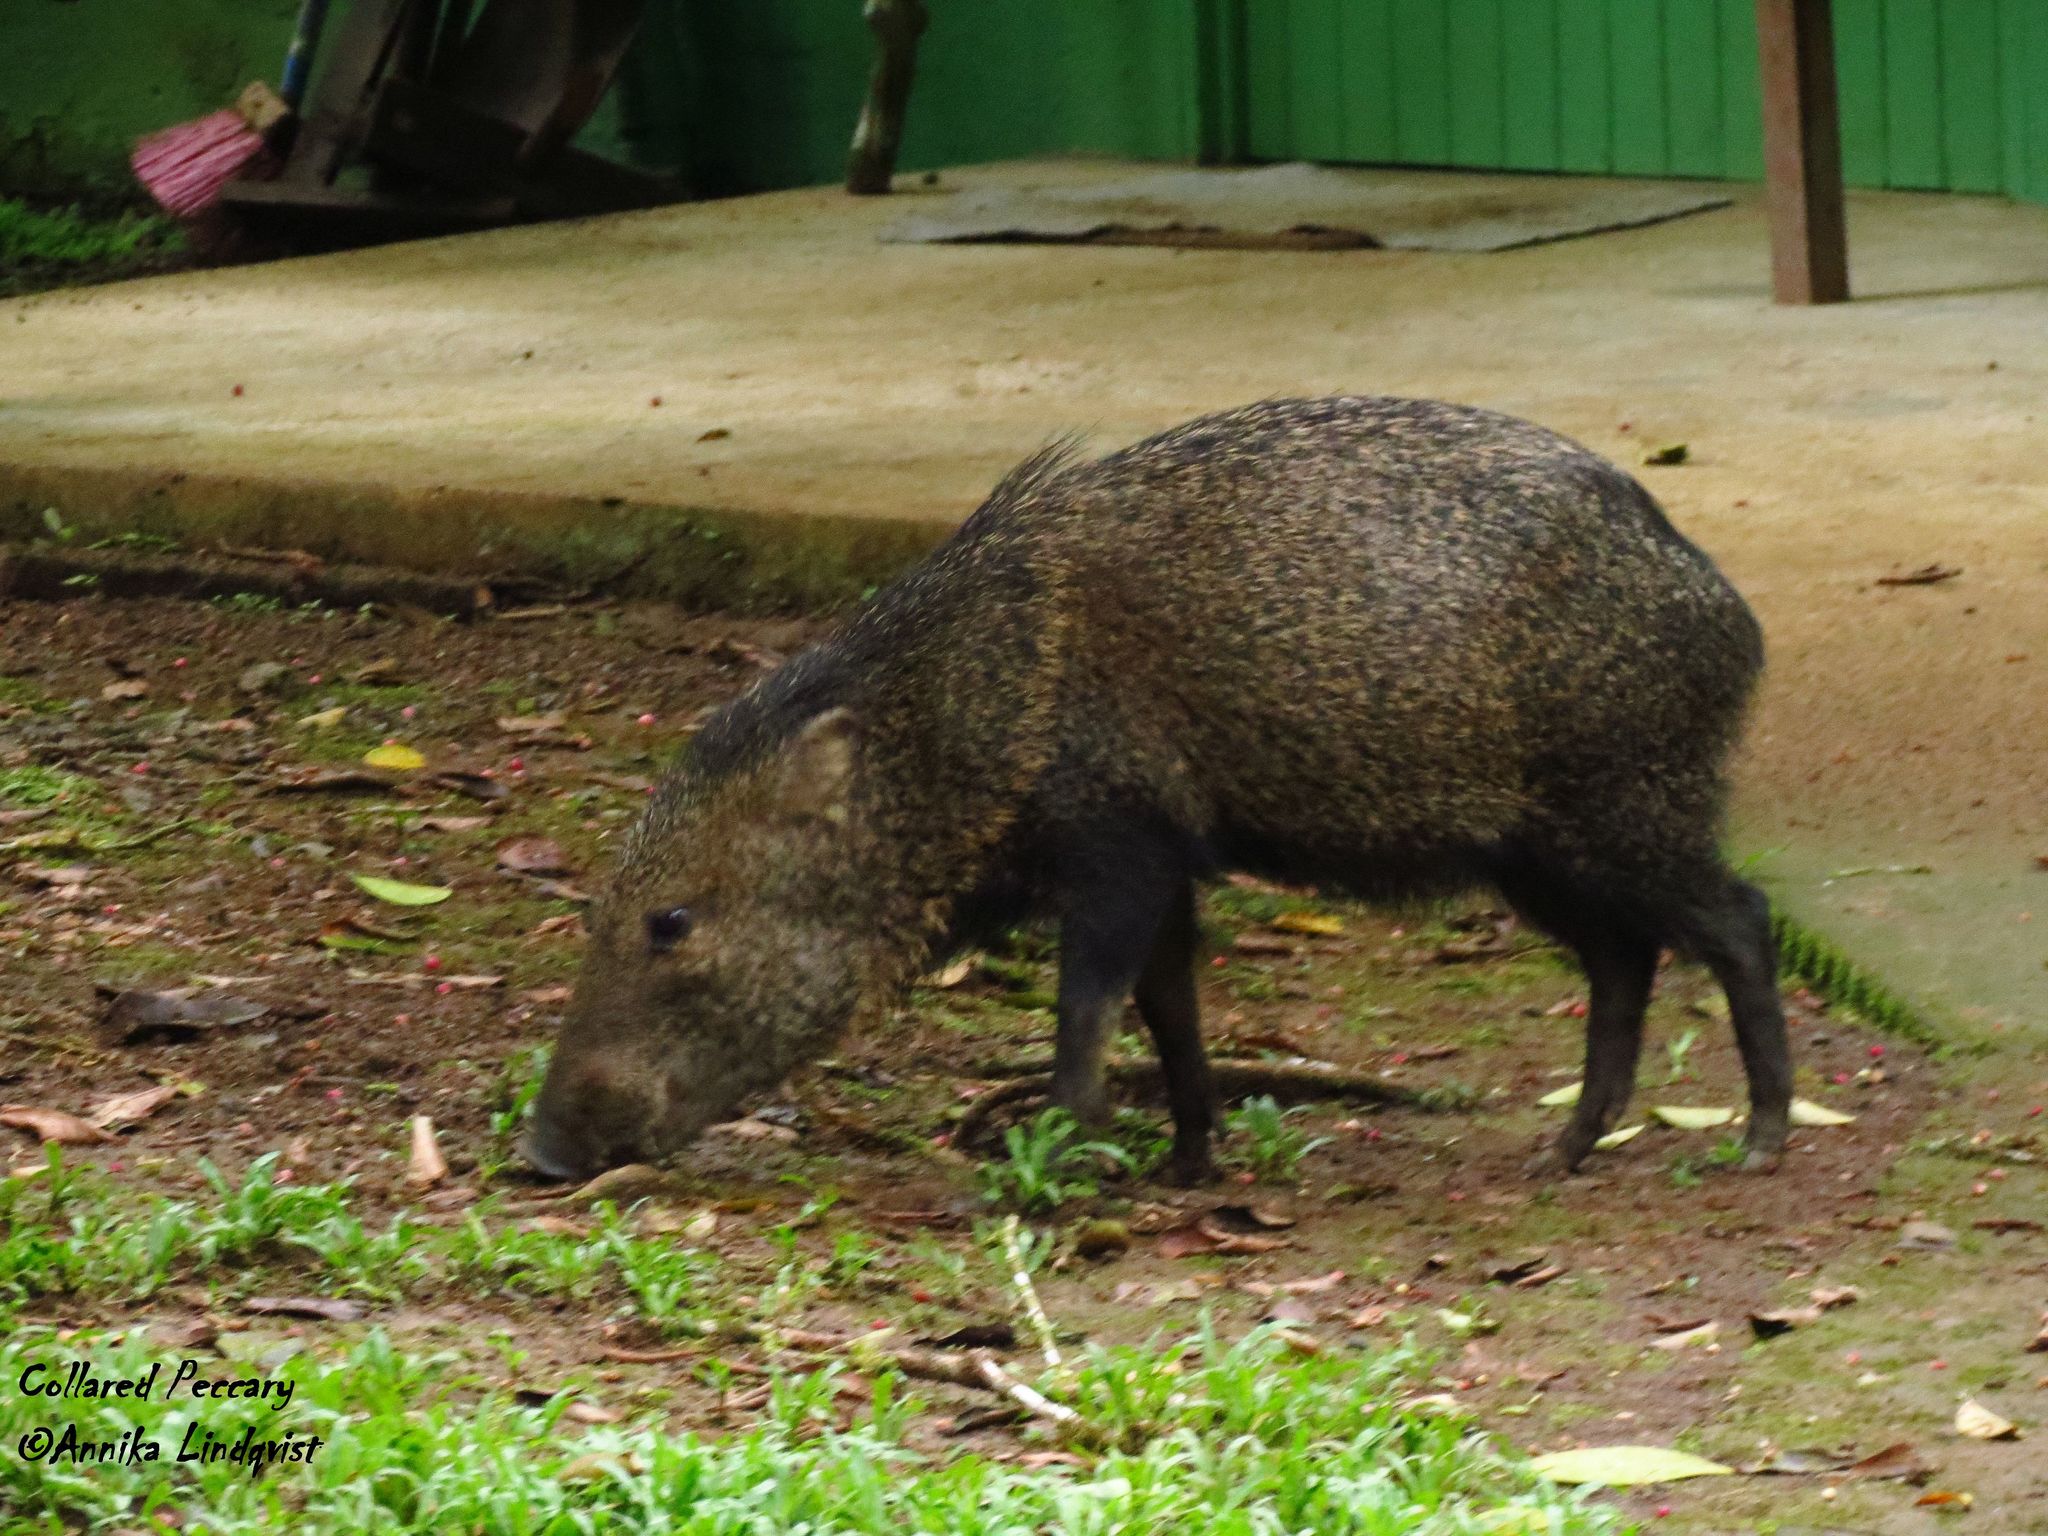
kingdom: Animalia
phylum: Chordata
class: Mammalia
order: Artiodactyla
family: Tayassuidae
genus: Pecari
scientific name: Pecari tajacu
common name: Collared peccary
